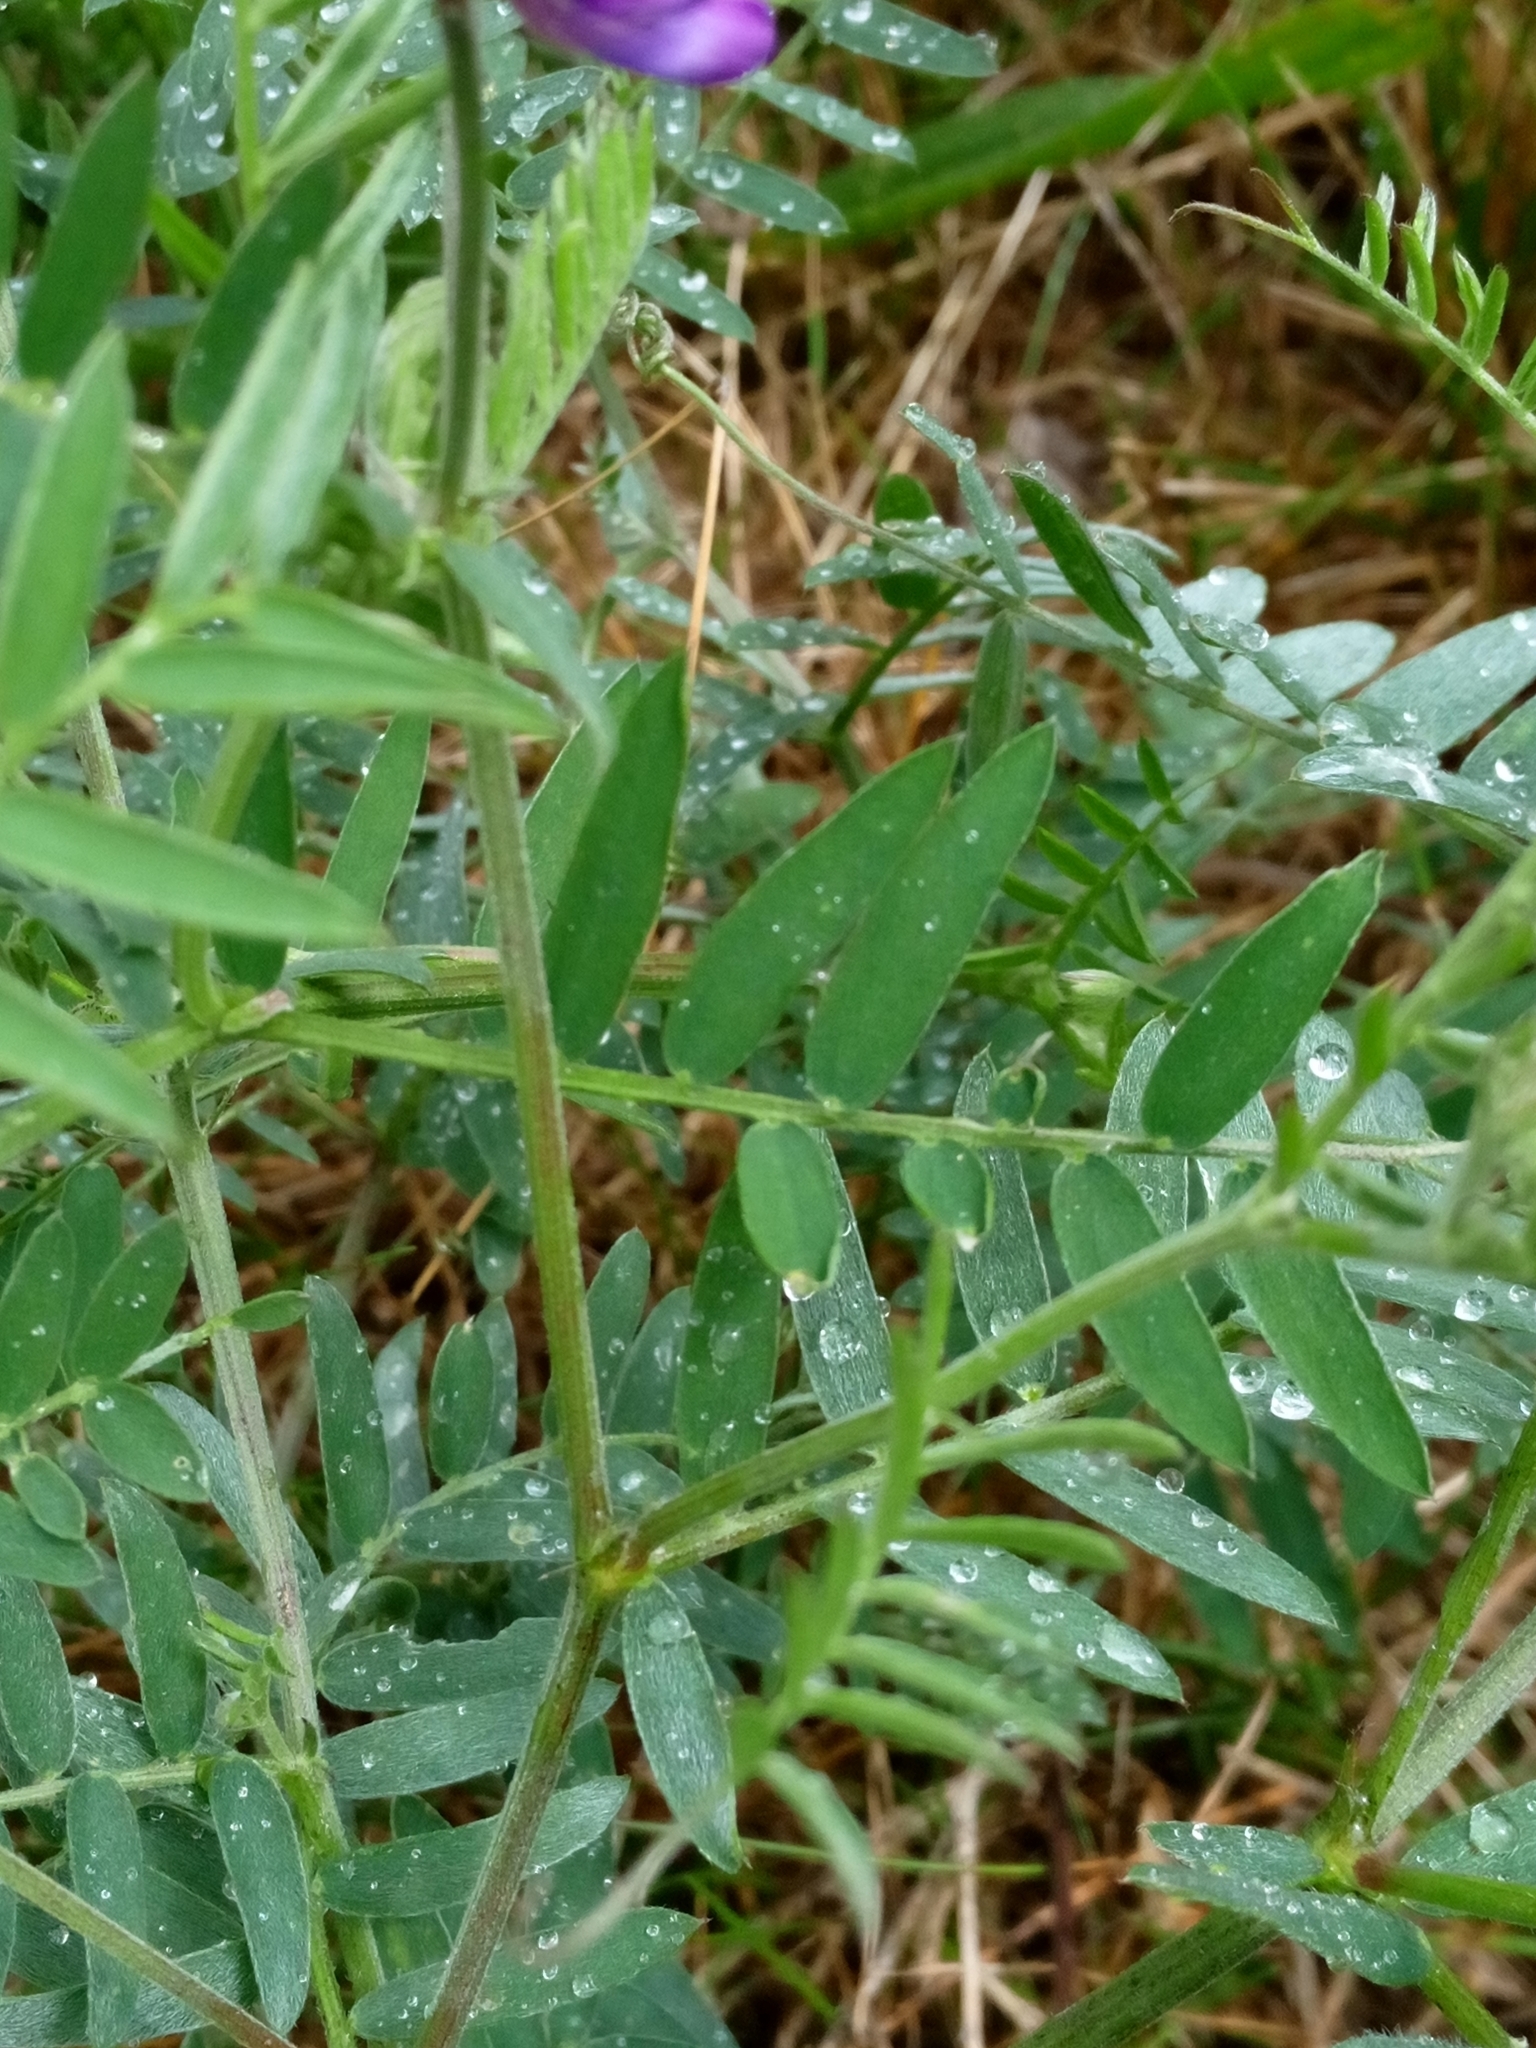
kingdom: Plantae
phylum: Tracheophyta
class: Magnoliopsida
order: Fabales
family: Fabaceae
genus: Vicia
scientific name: Vicia cracca
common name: Bird vetch
